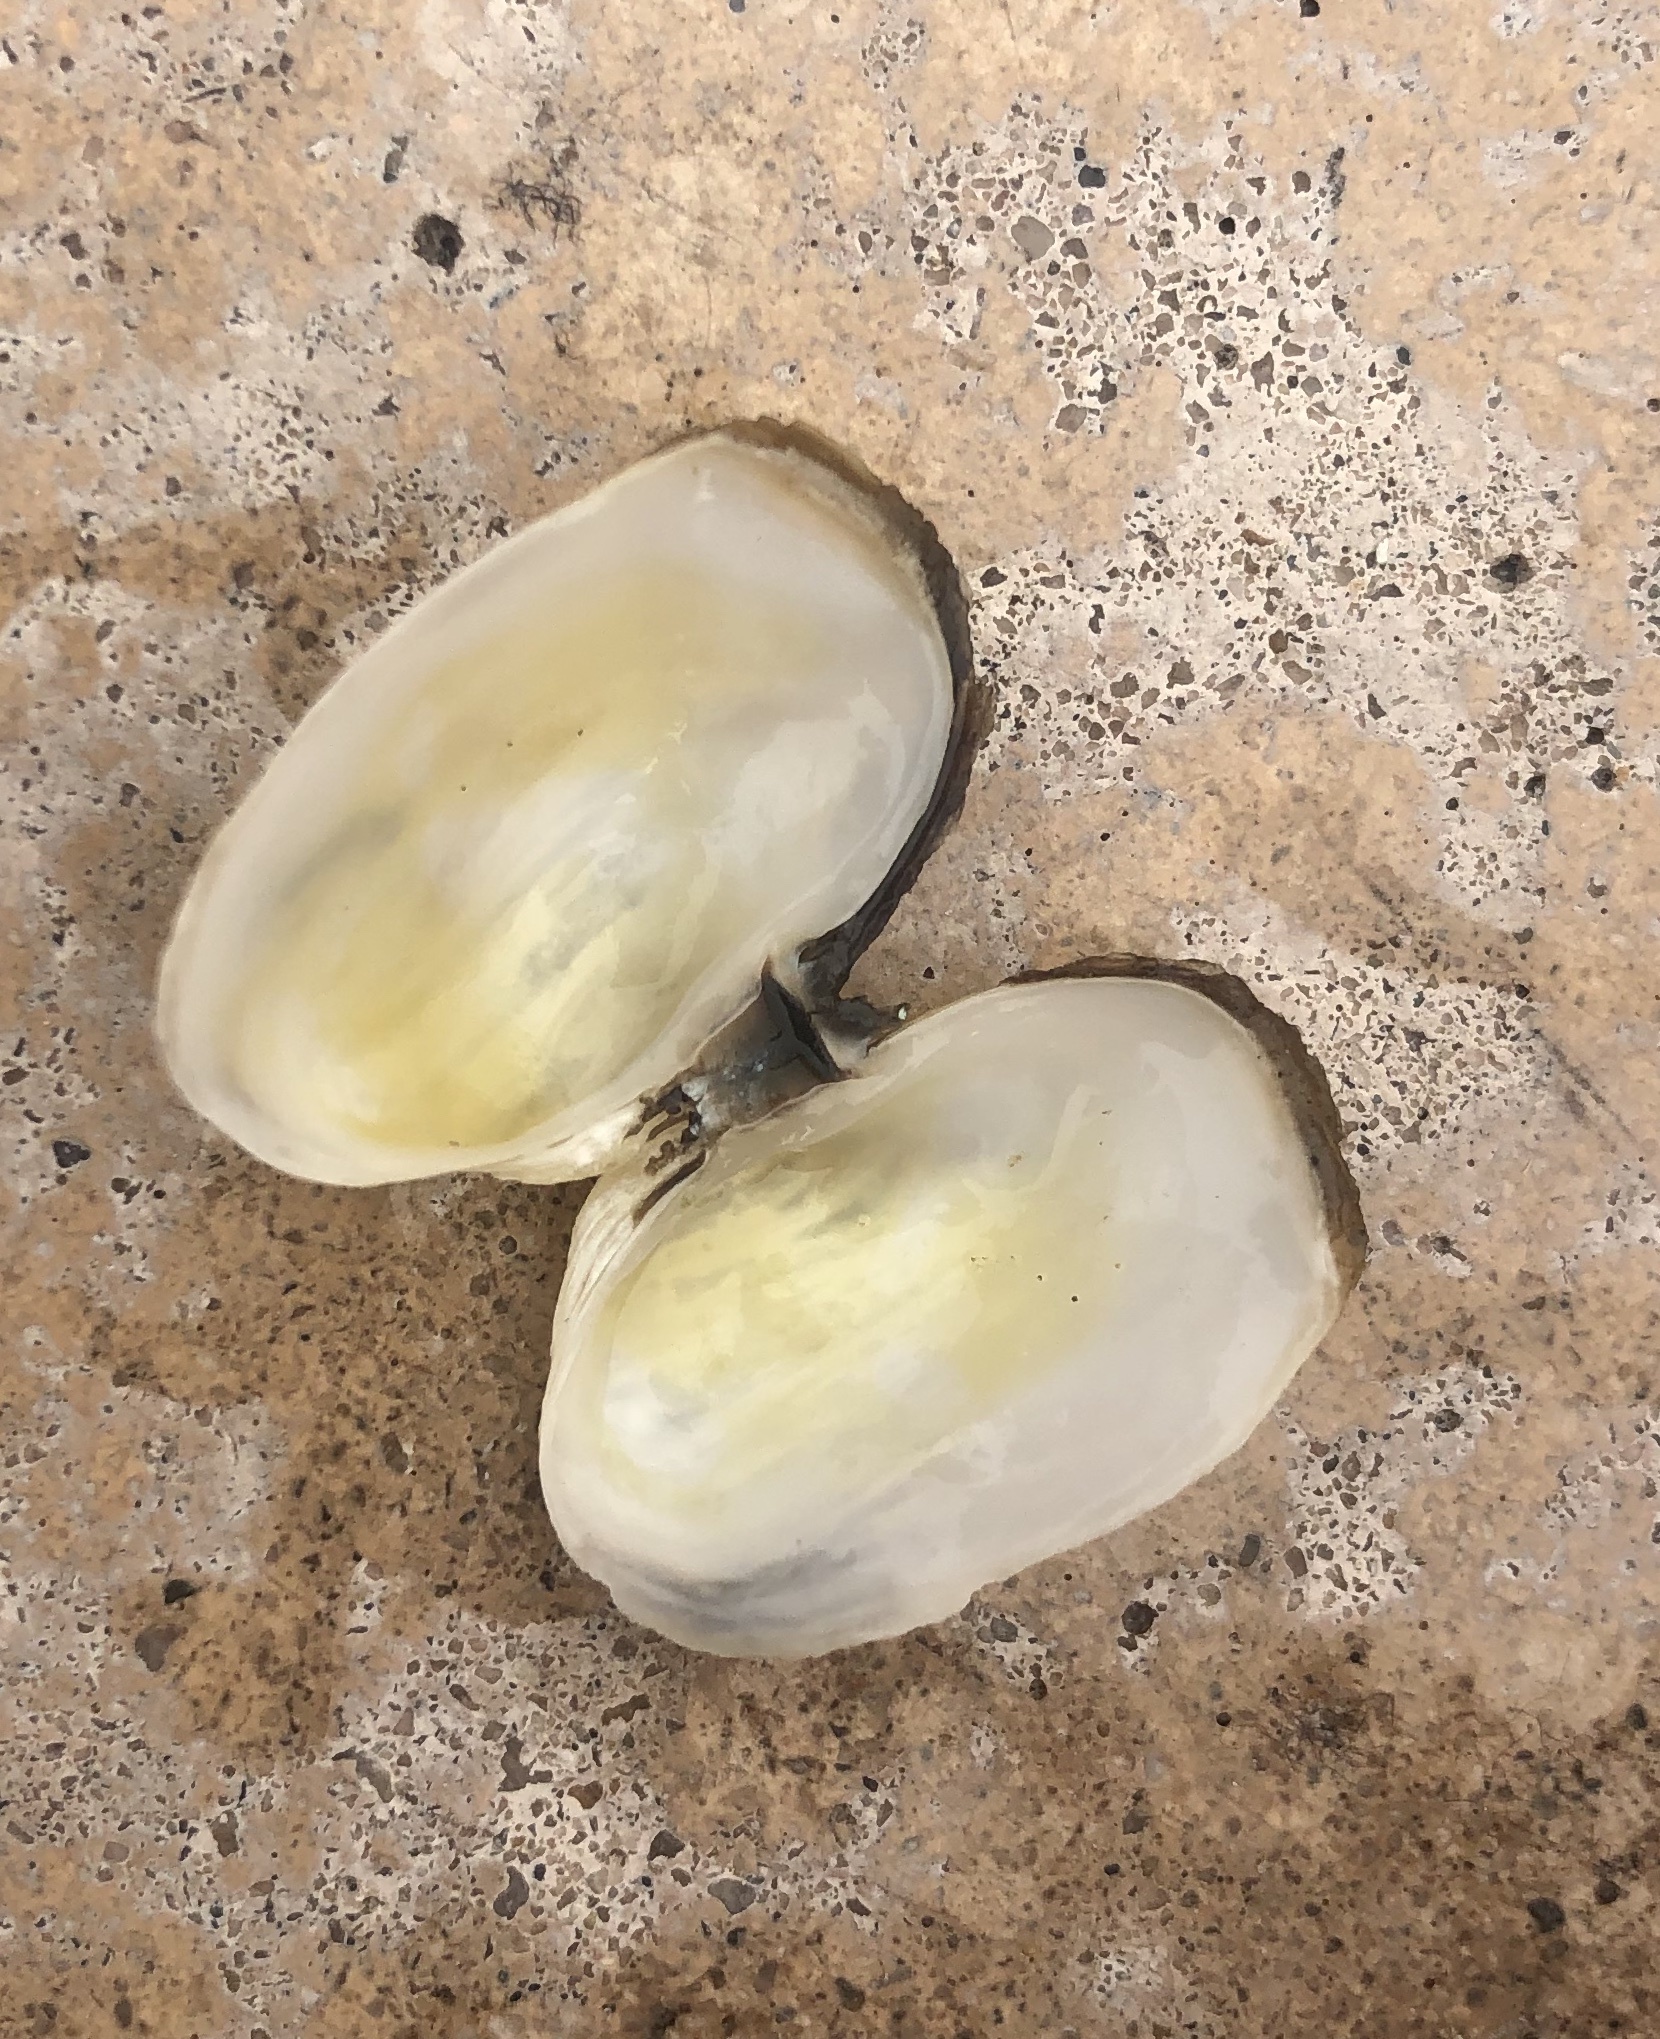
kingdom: Animalia
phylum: Mollusca
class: Bivalvia
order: Adapedonta
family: Hiatellidae
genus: Hiatella
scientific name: Hiatella arctica
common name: Arctic hiatella
